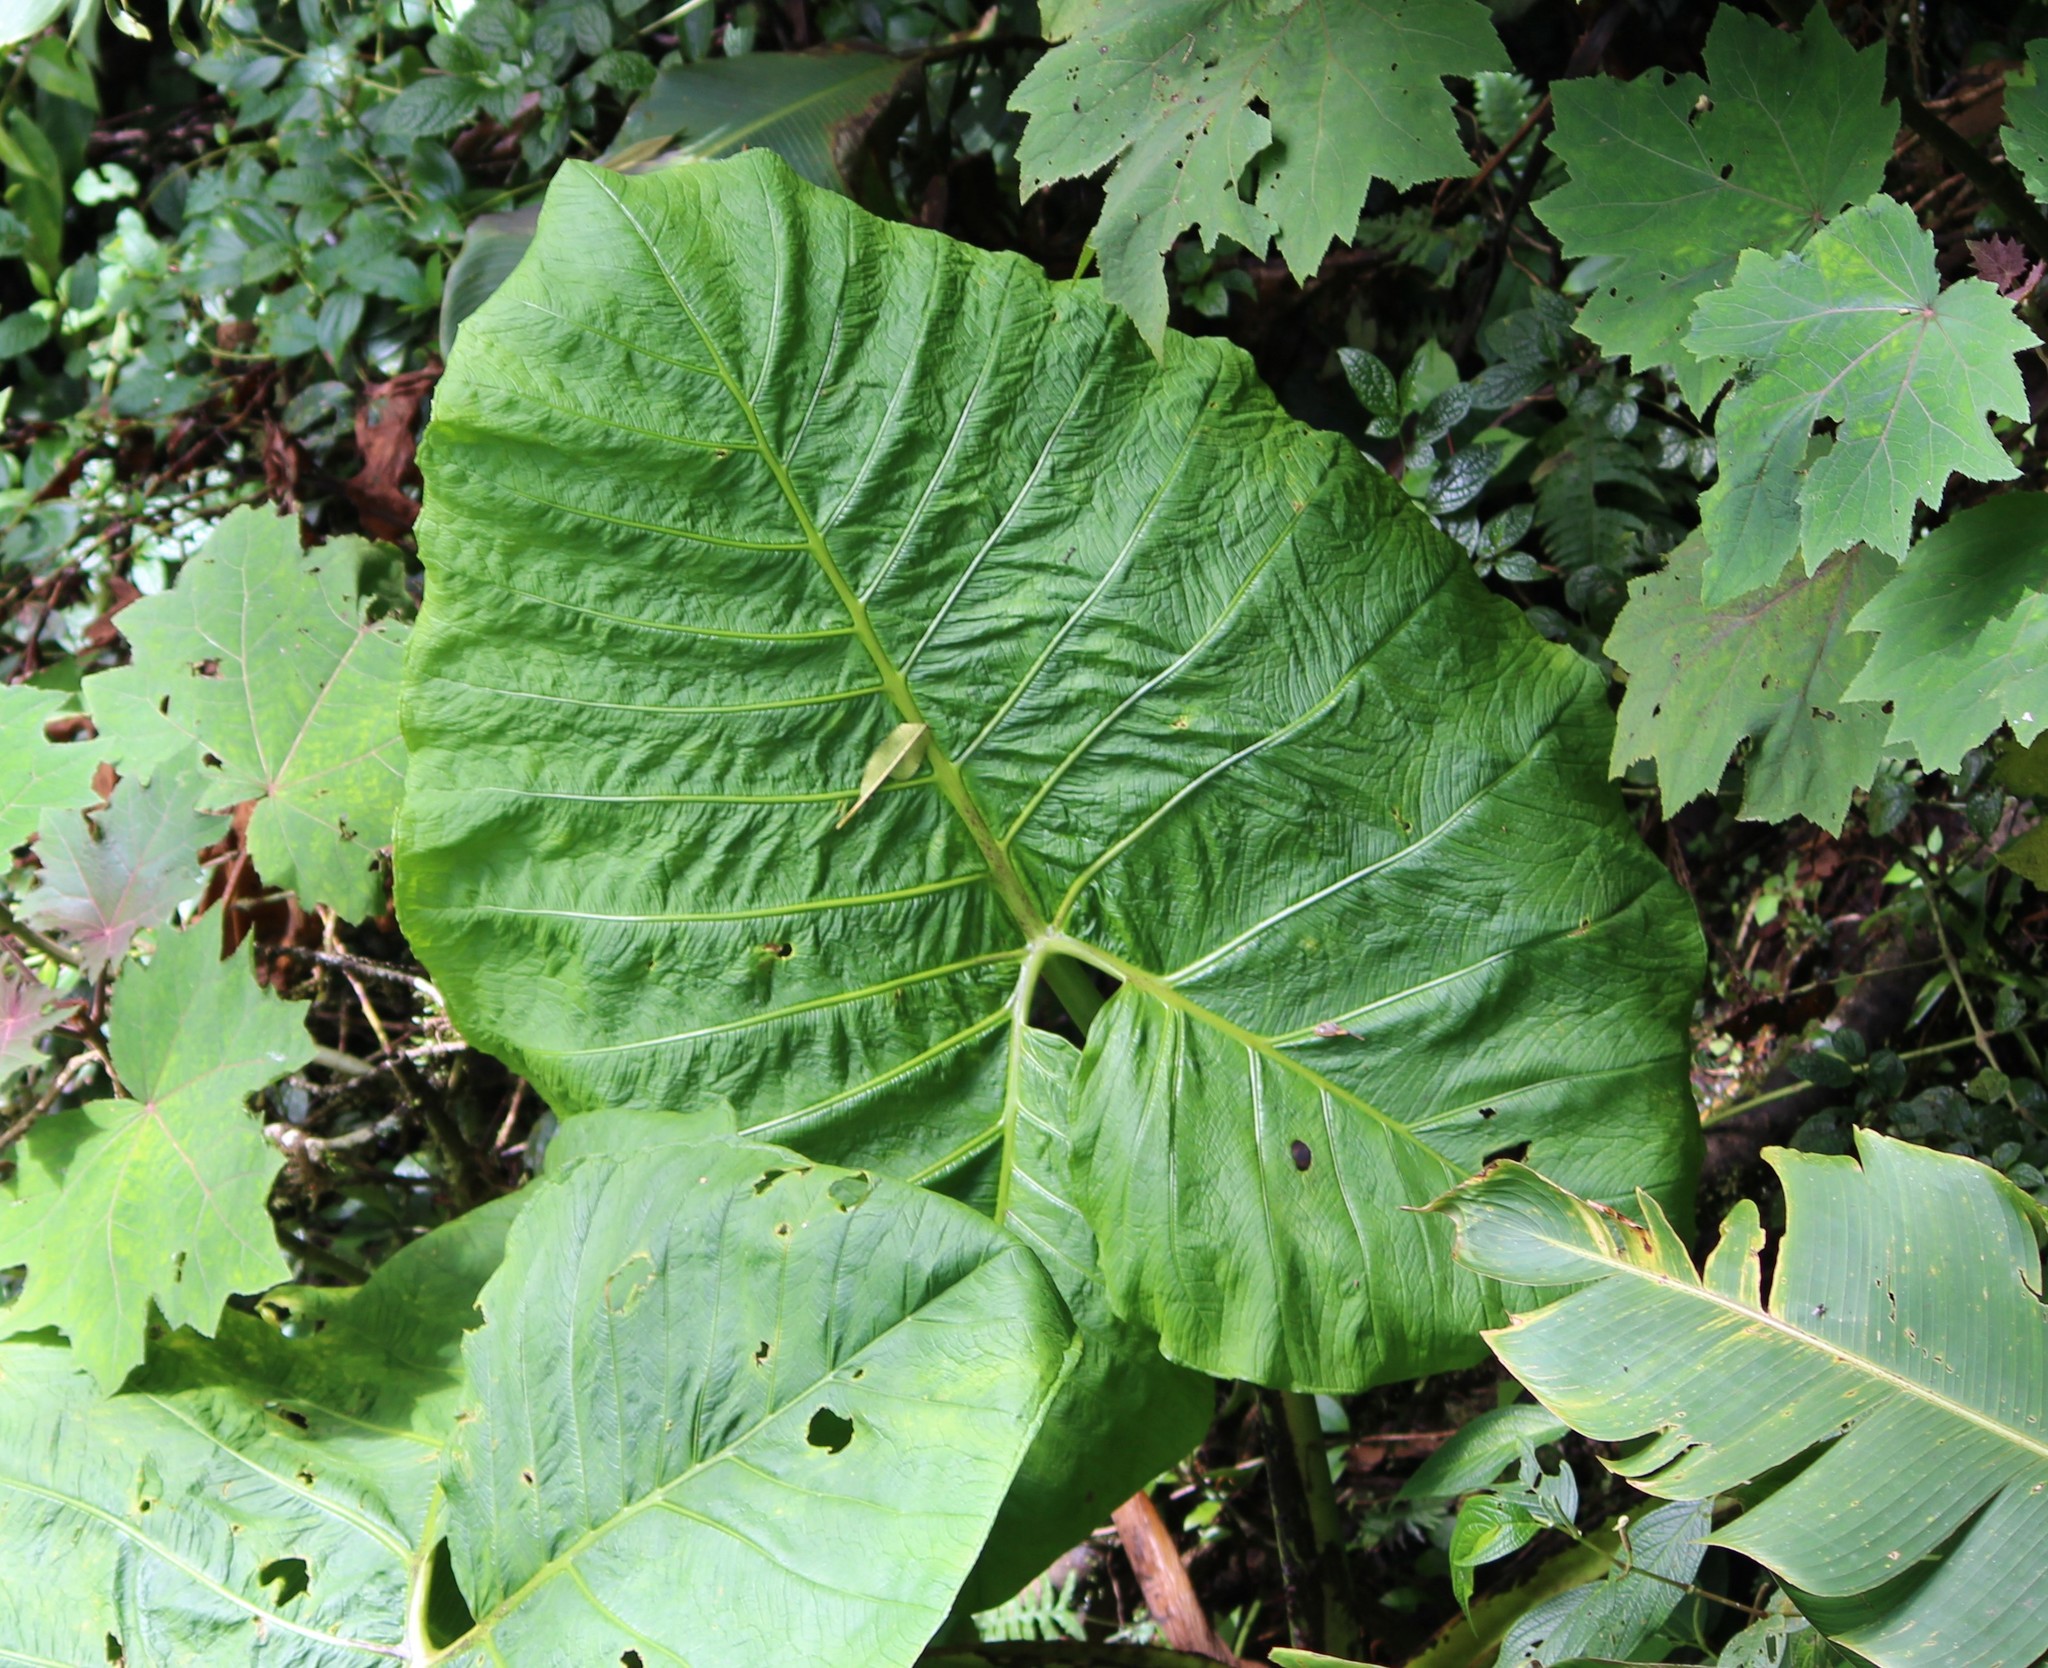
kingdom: Plantae
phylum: Tracheophyta
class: Liliopsida
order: Alismatales
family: Araceae
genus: Xanthosoma
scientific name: Xanthosoma undipes
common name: Tall elephant's ear
